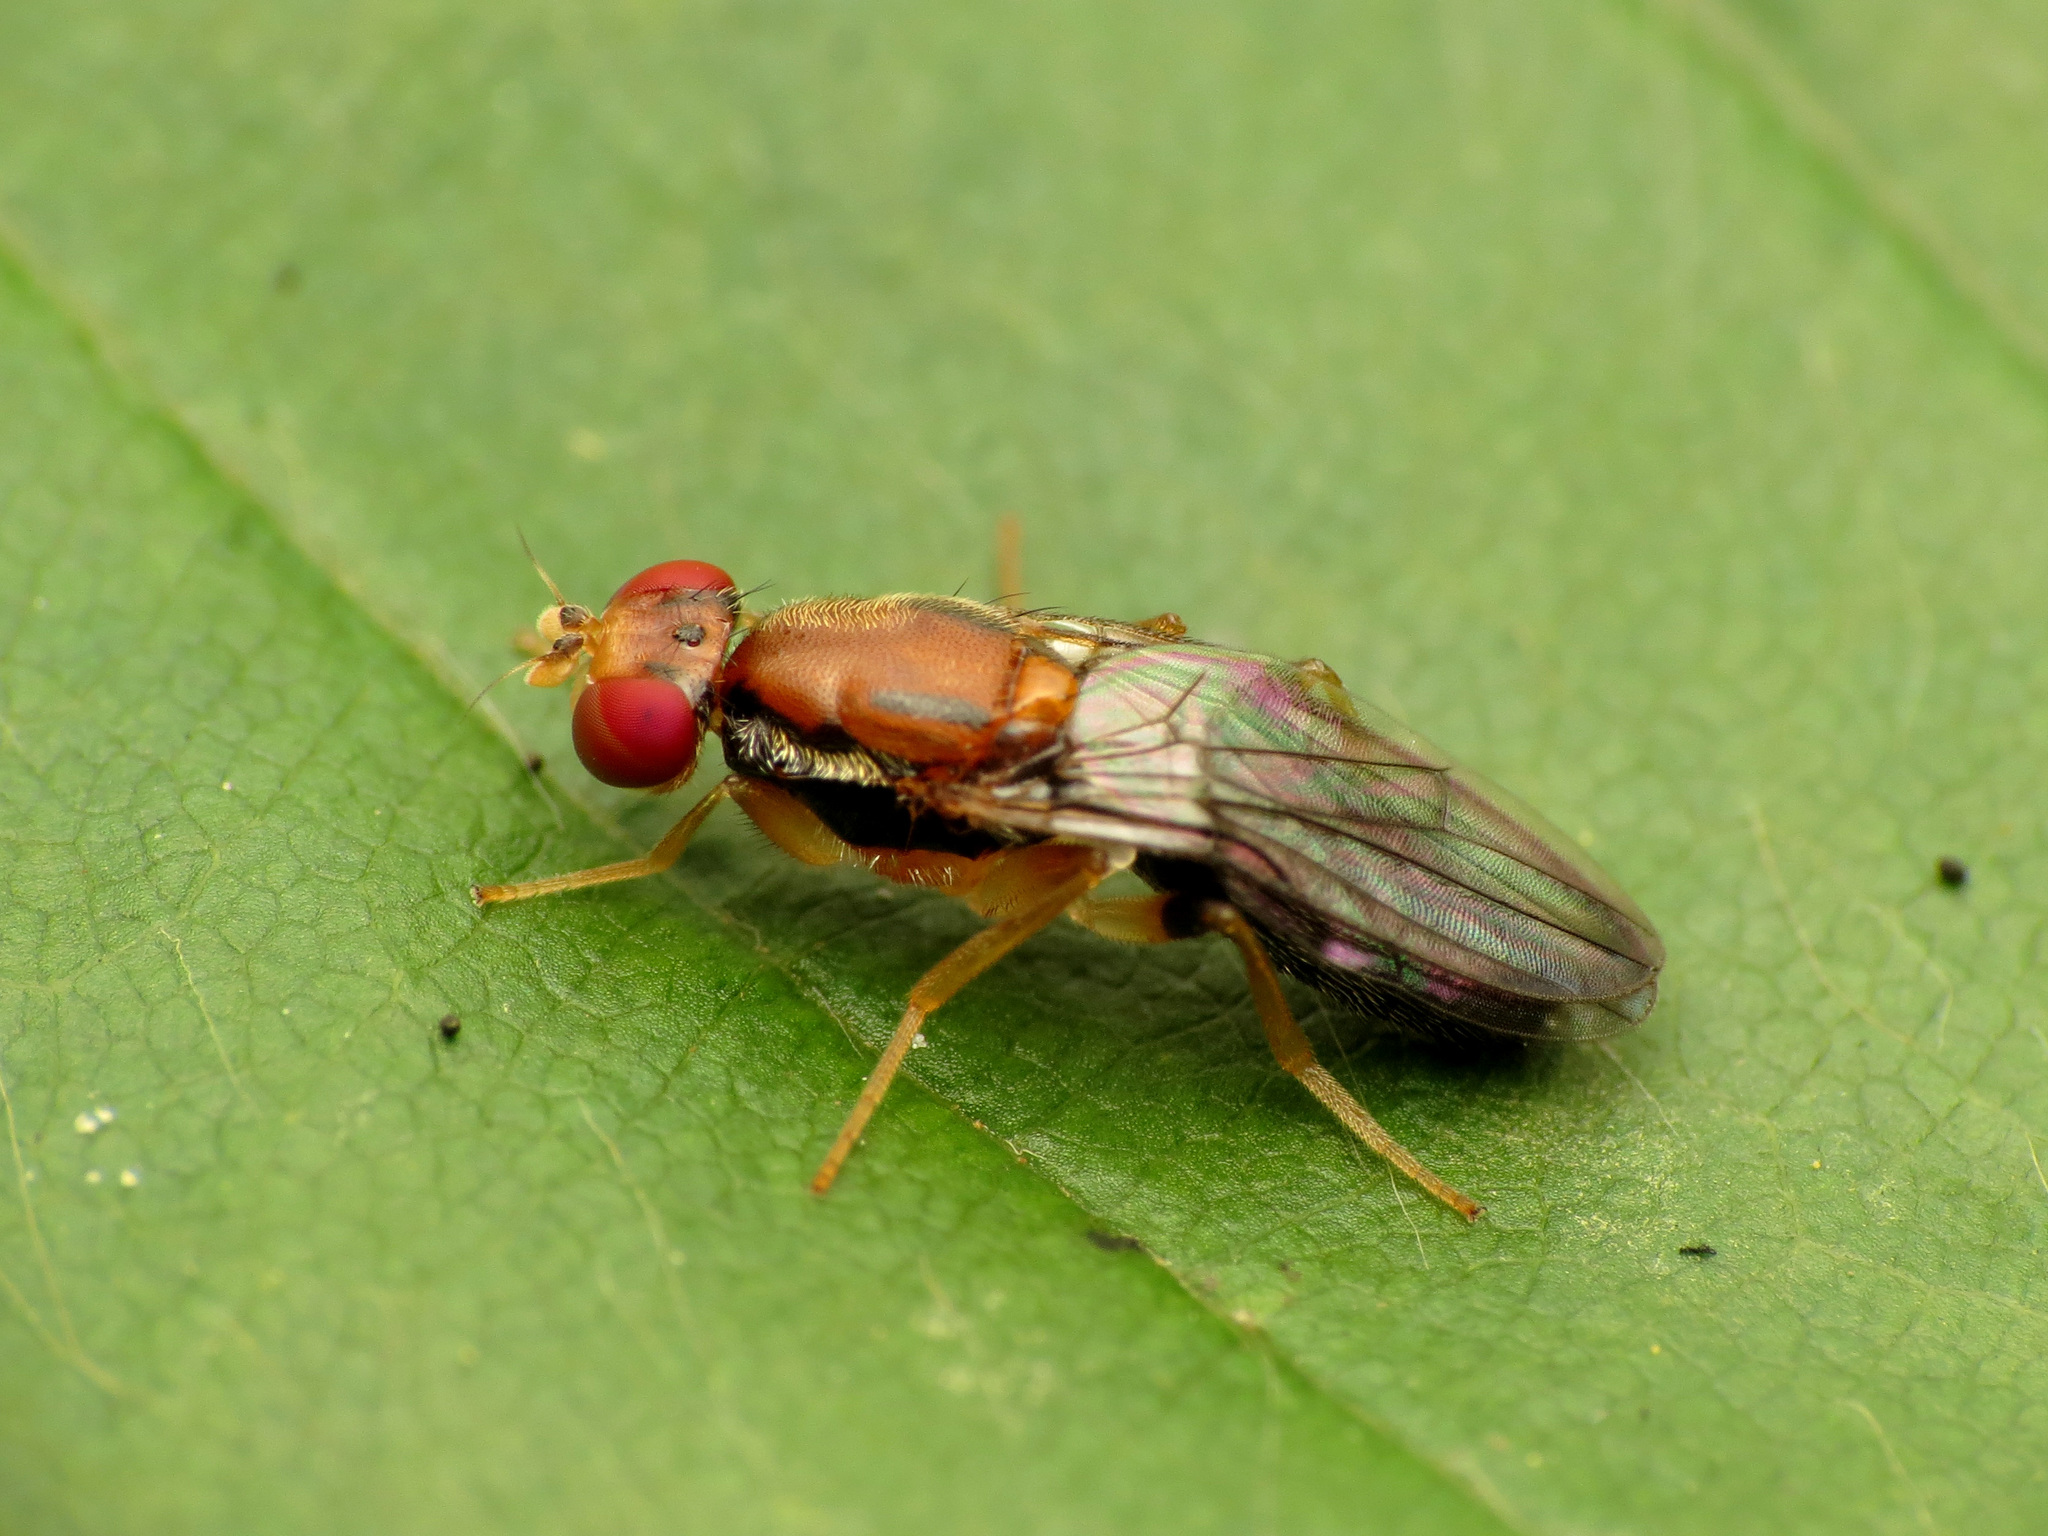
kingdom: Animalia
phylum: Arthropoda
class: Insecta
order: Diptera
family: Psilidae
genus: Chyliza
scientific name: Chyliza apicalis
